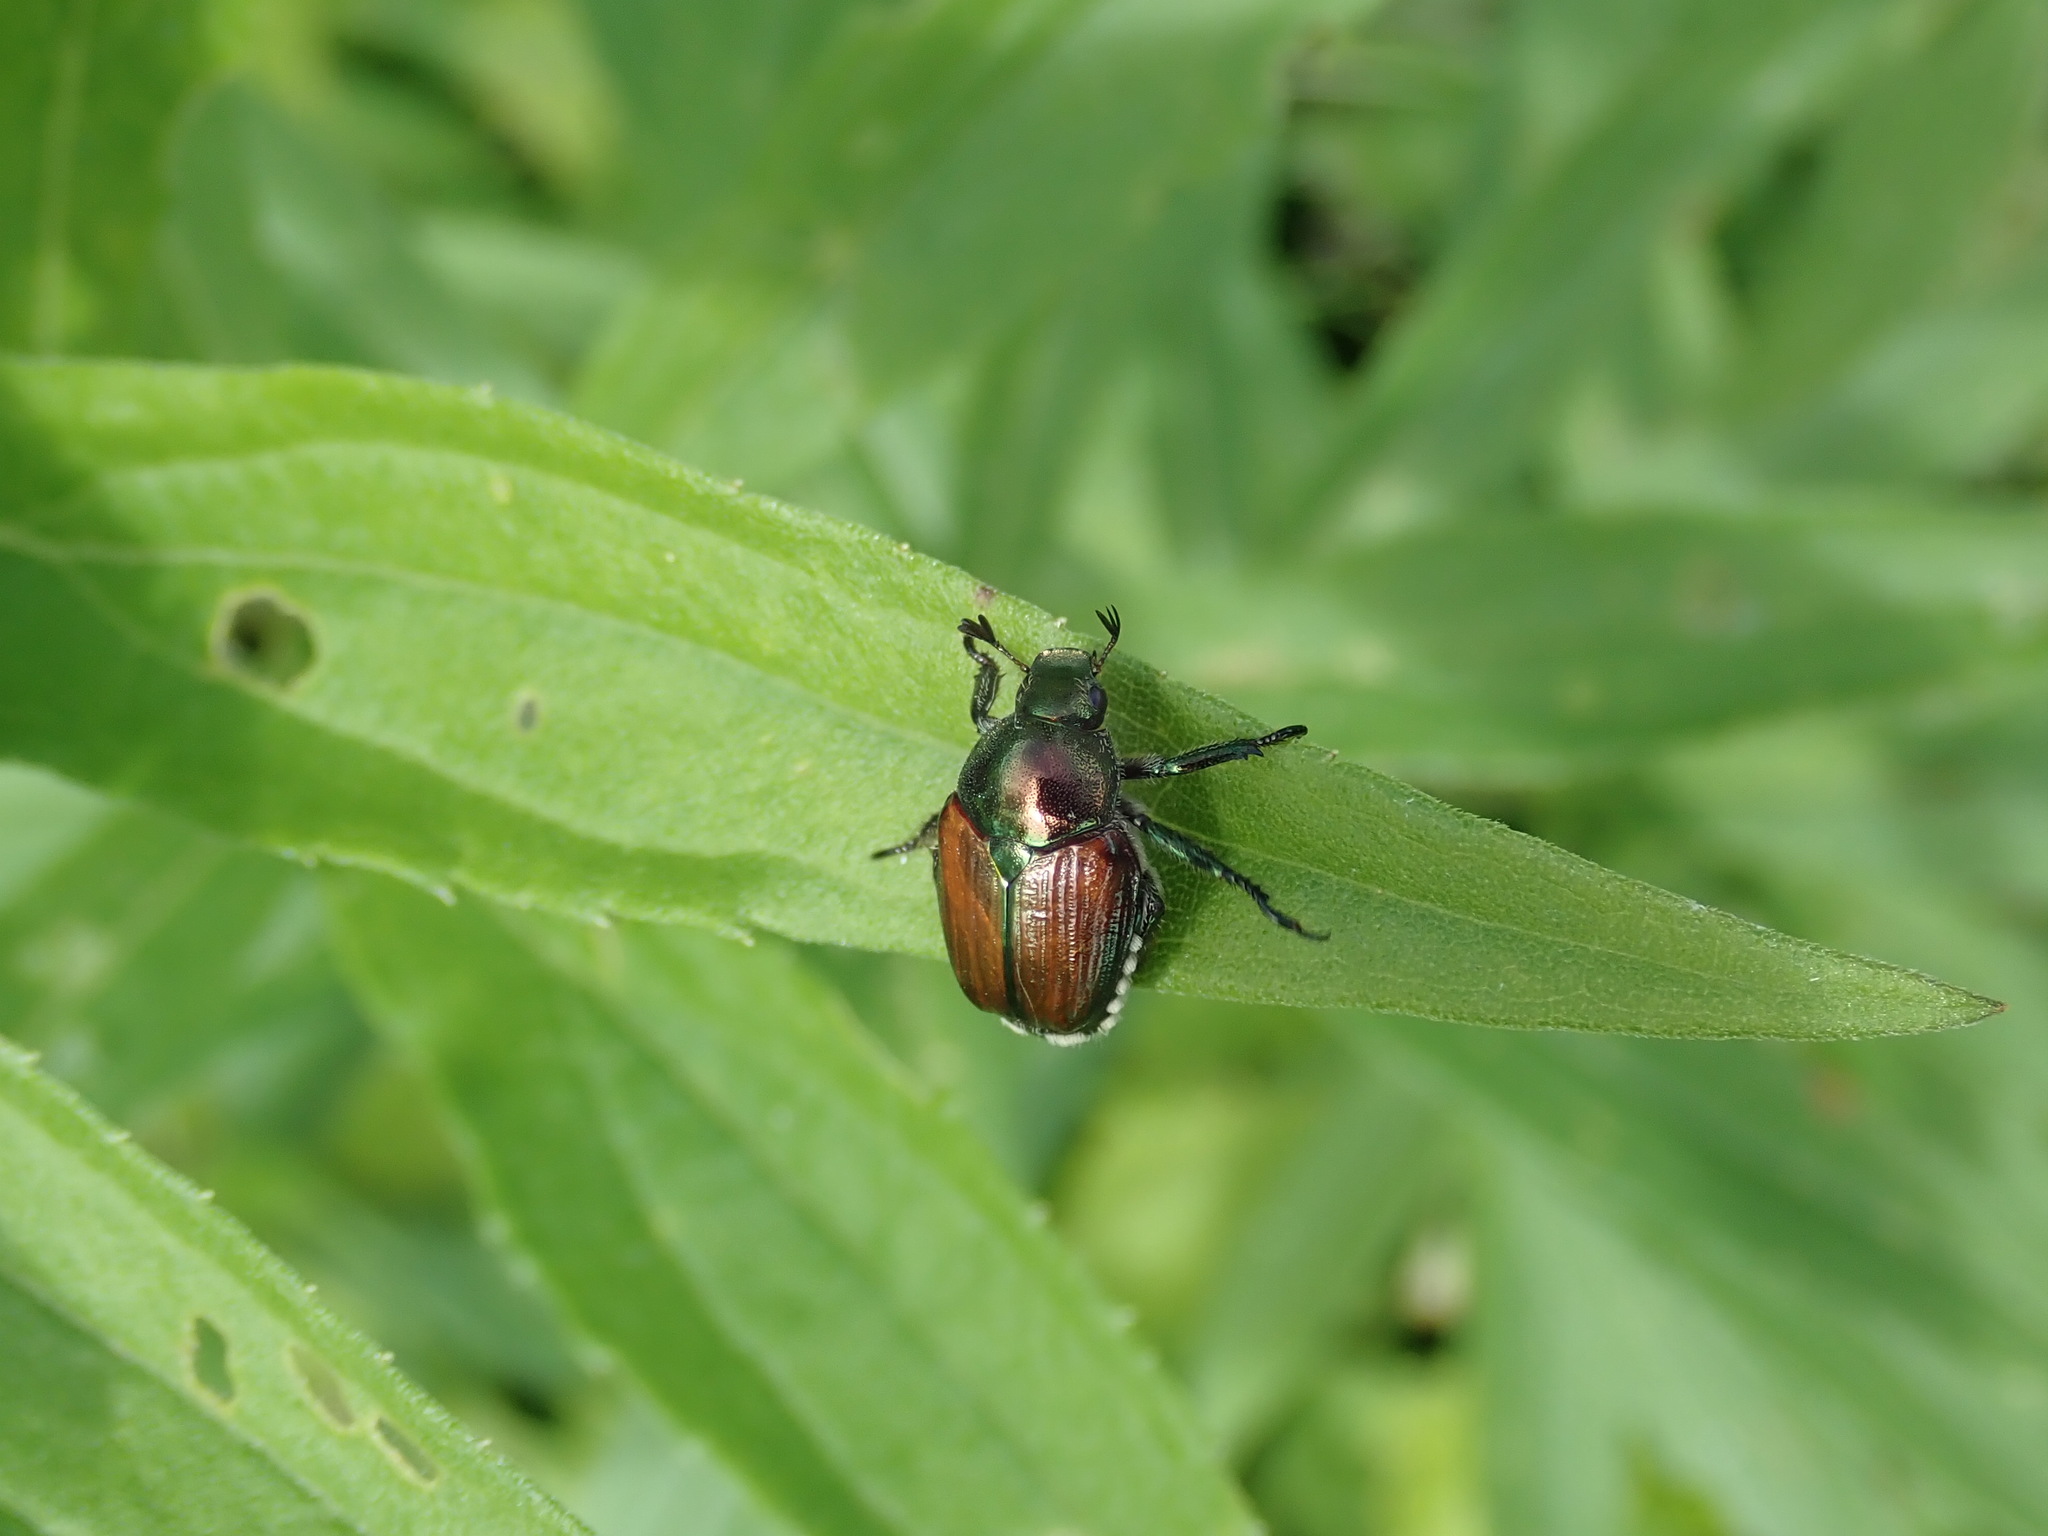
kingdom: Animalia
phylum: Arthropoda
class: Insecta
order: Coleoptera
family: Scarabaeidae
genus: Popillia
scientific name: Popillia japonica
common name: Japanese beetle
